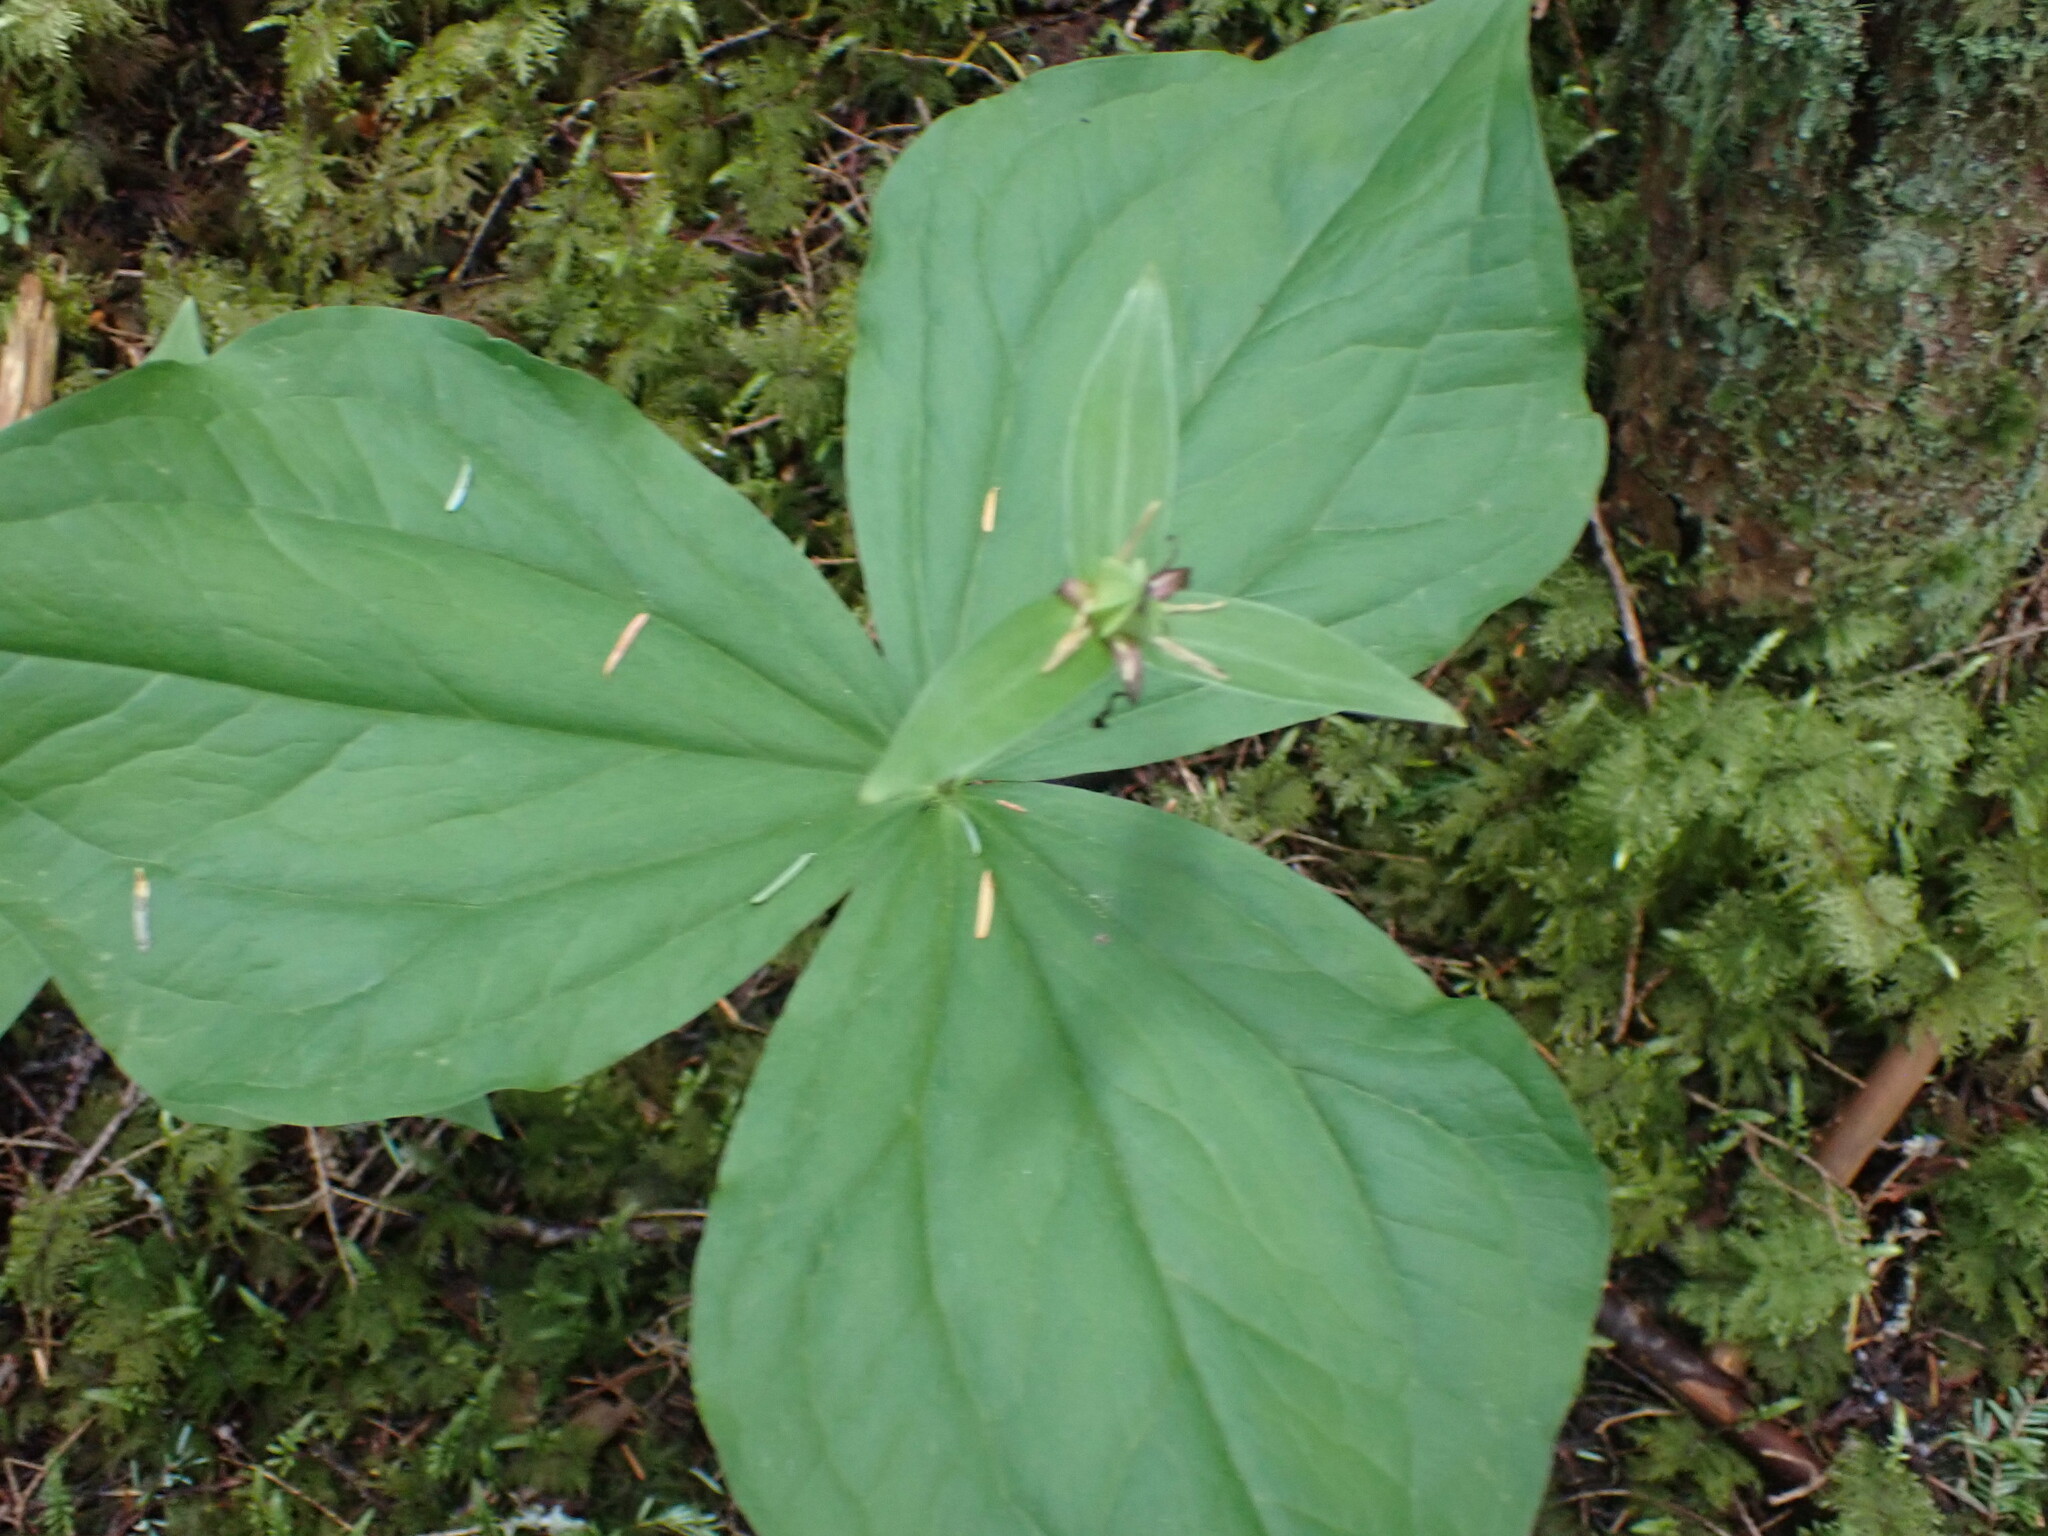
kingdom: Plantae
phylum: Tracheophyta
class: Liliopsida
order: Liliales
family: Melanthiaceae
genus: Trillium
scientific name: Trillium ovatum
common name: Pacific trillium
